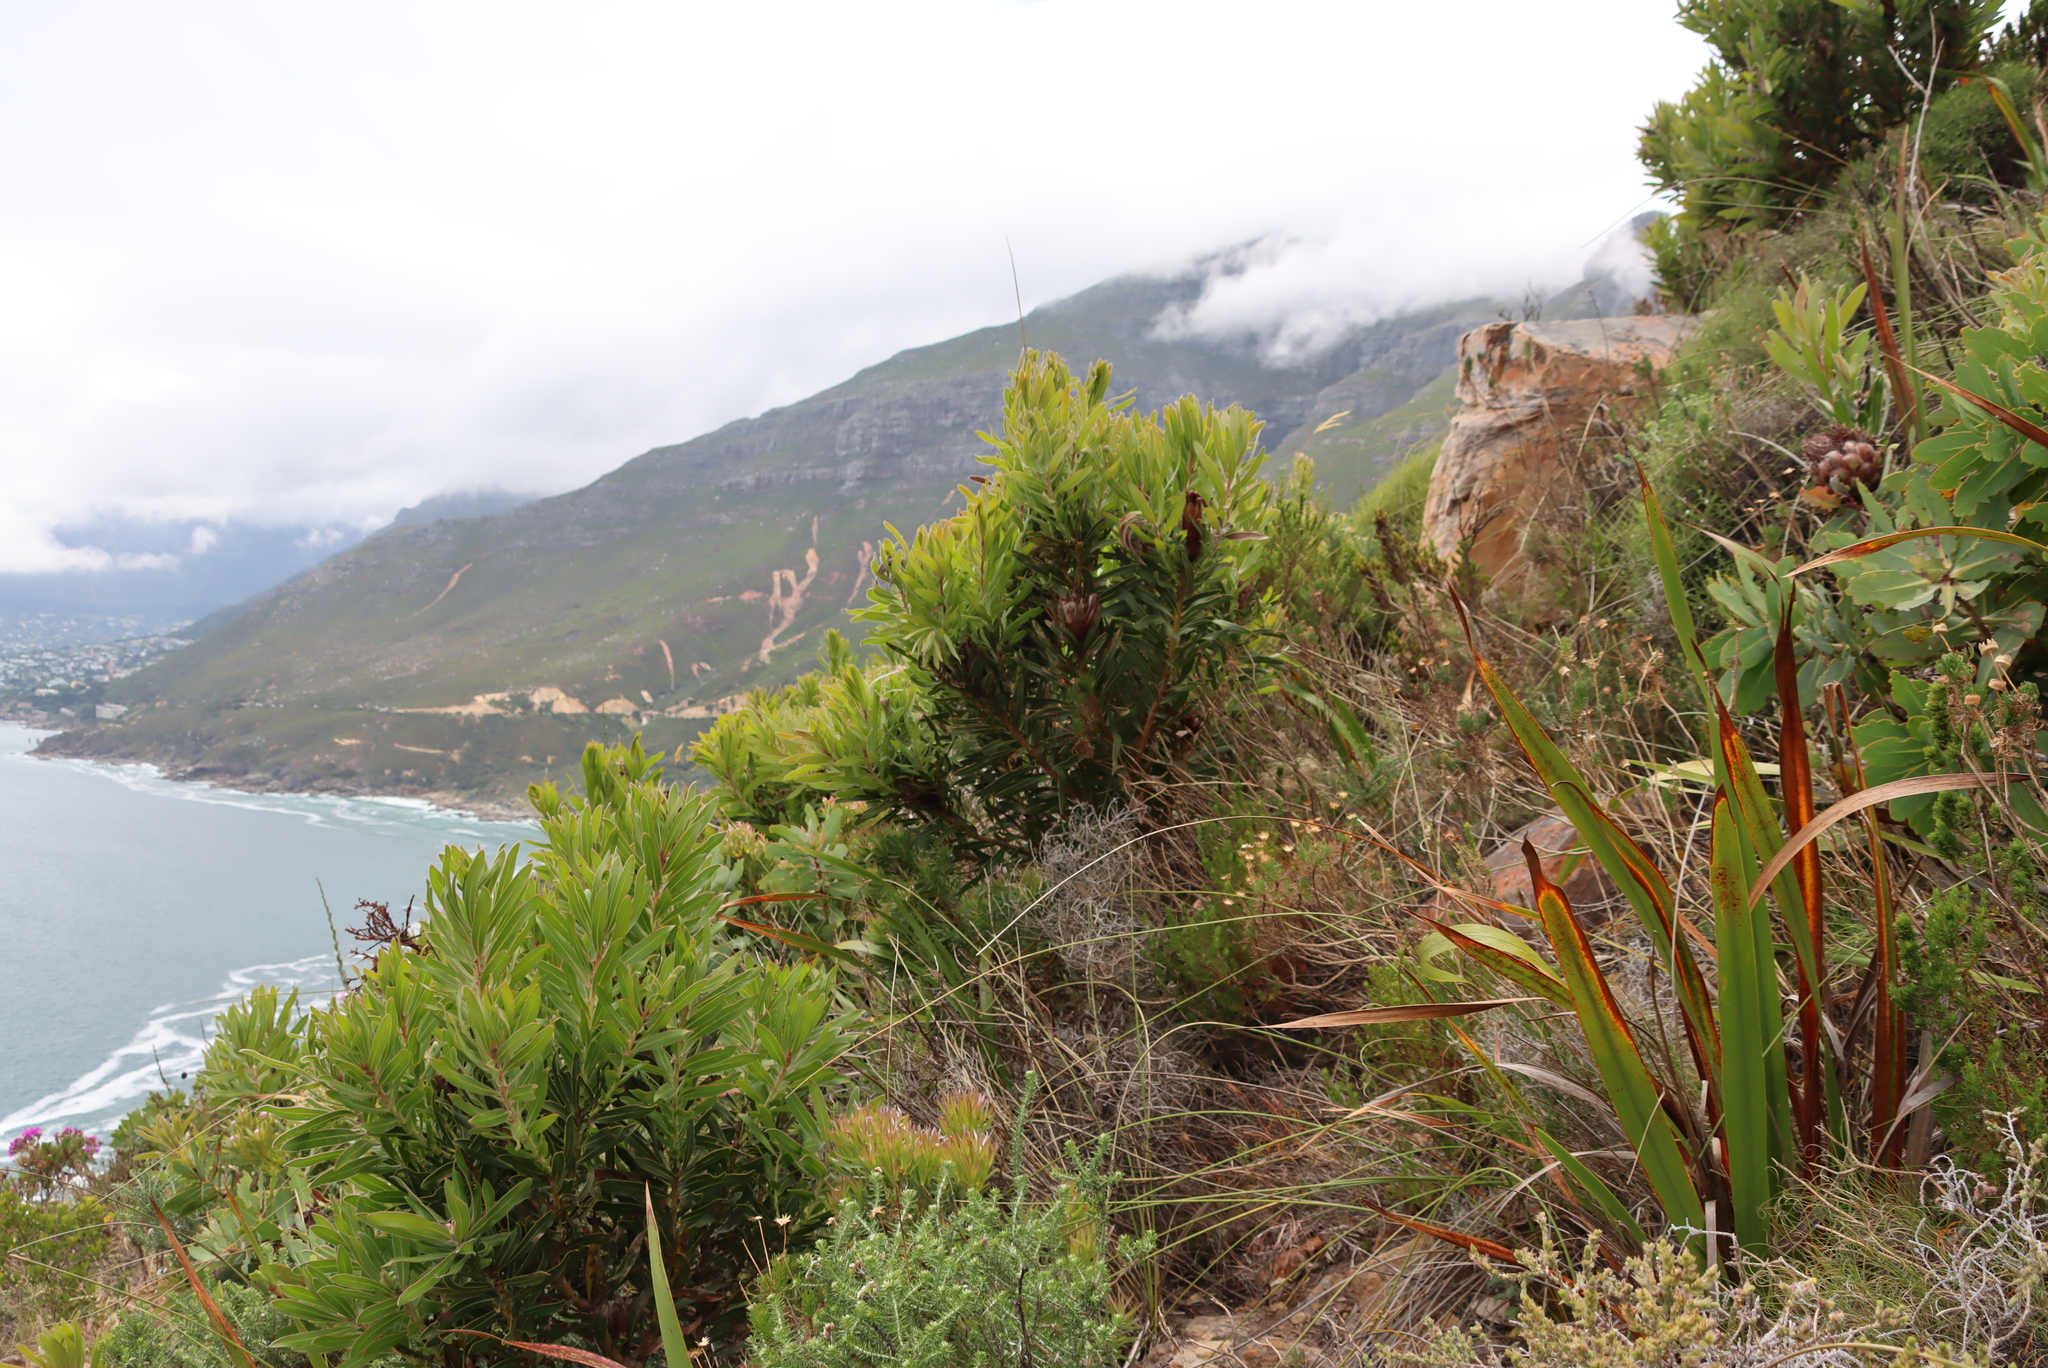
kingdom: Plantae
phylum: Tracheophyta
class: Magnoliopsida
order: Proteales
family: Proteaceae
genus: Protea
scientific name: Protea lepidocarpodendron
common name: Black-bearded protea
